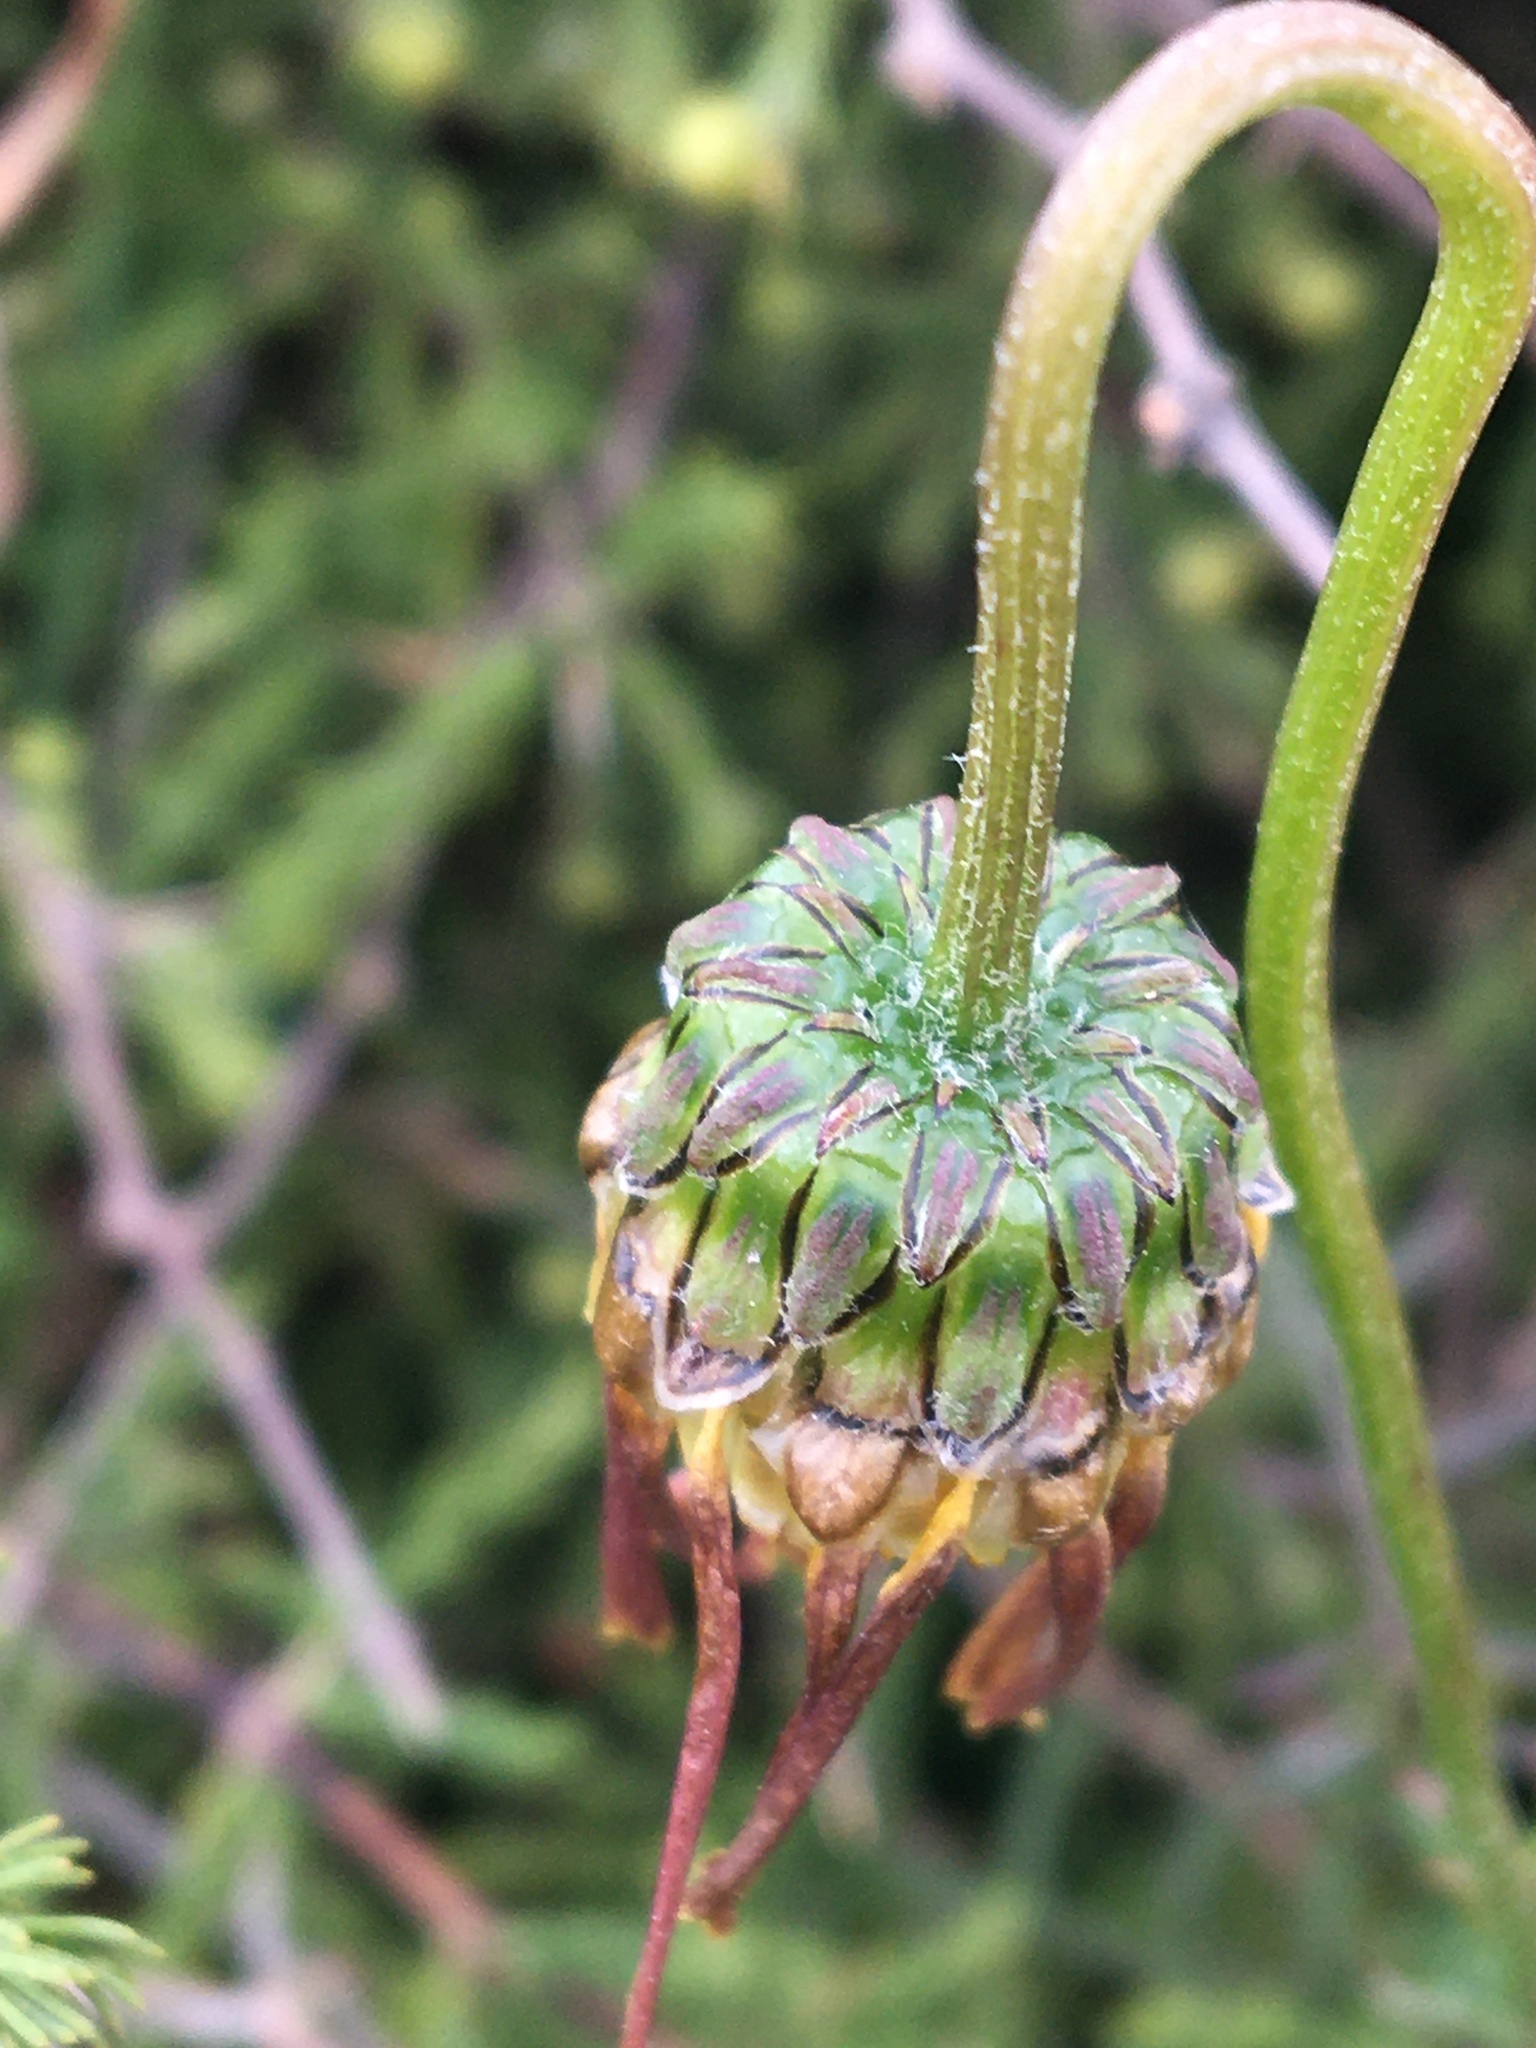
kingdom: Plantae
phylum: Tracheophyta
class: Magnoliopsida
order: Asterales
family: Asteraceae
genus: Ursinia
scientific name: Ursinia paleacea
